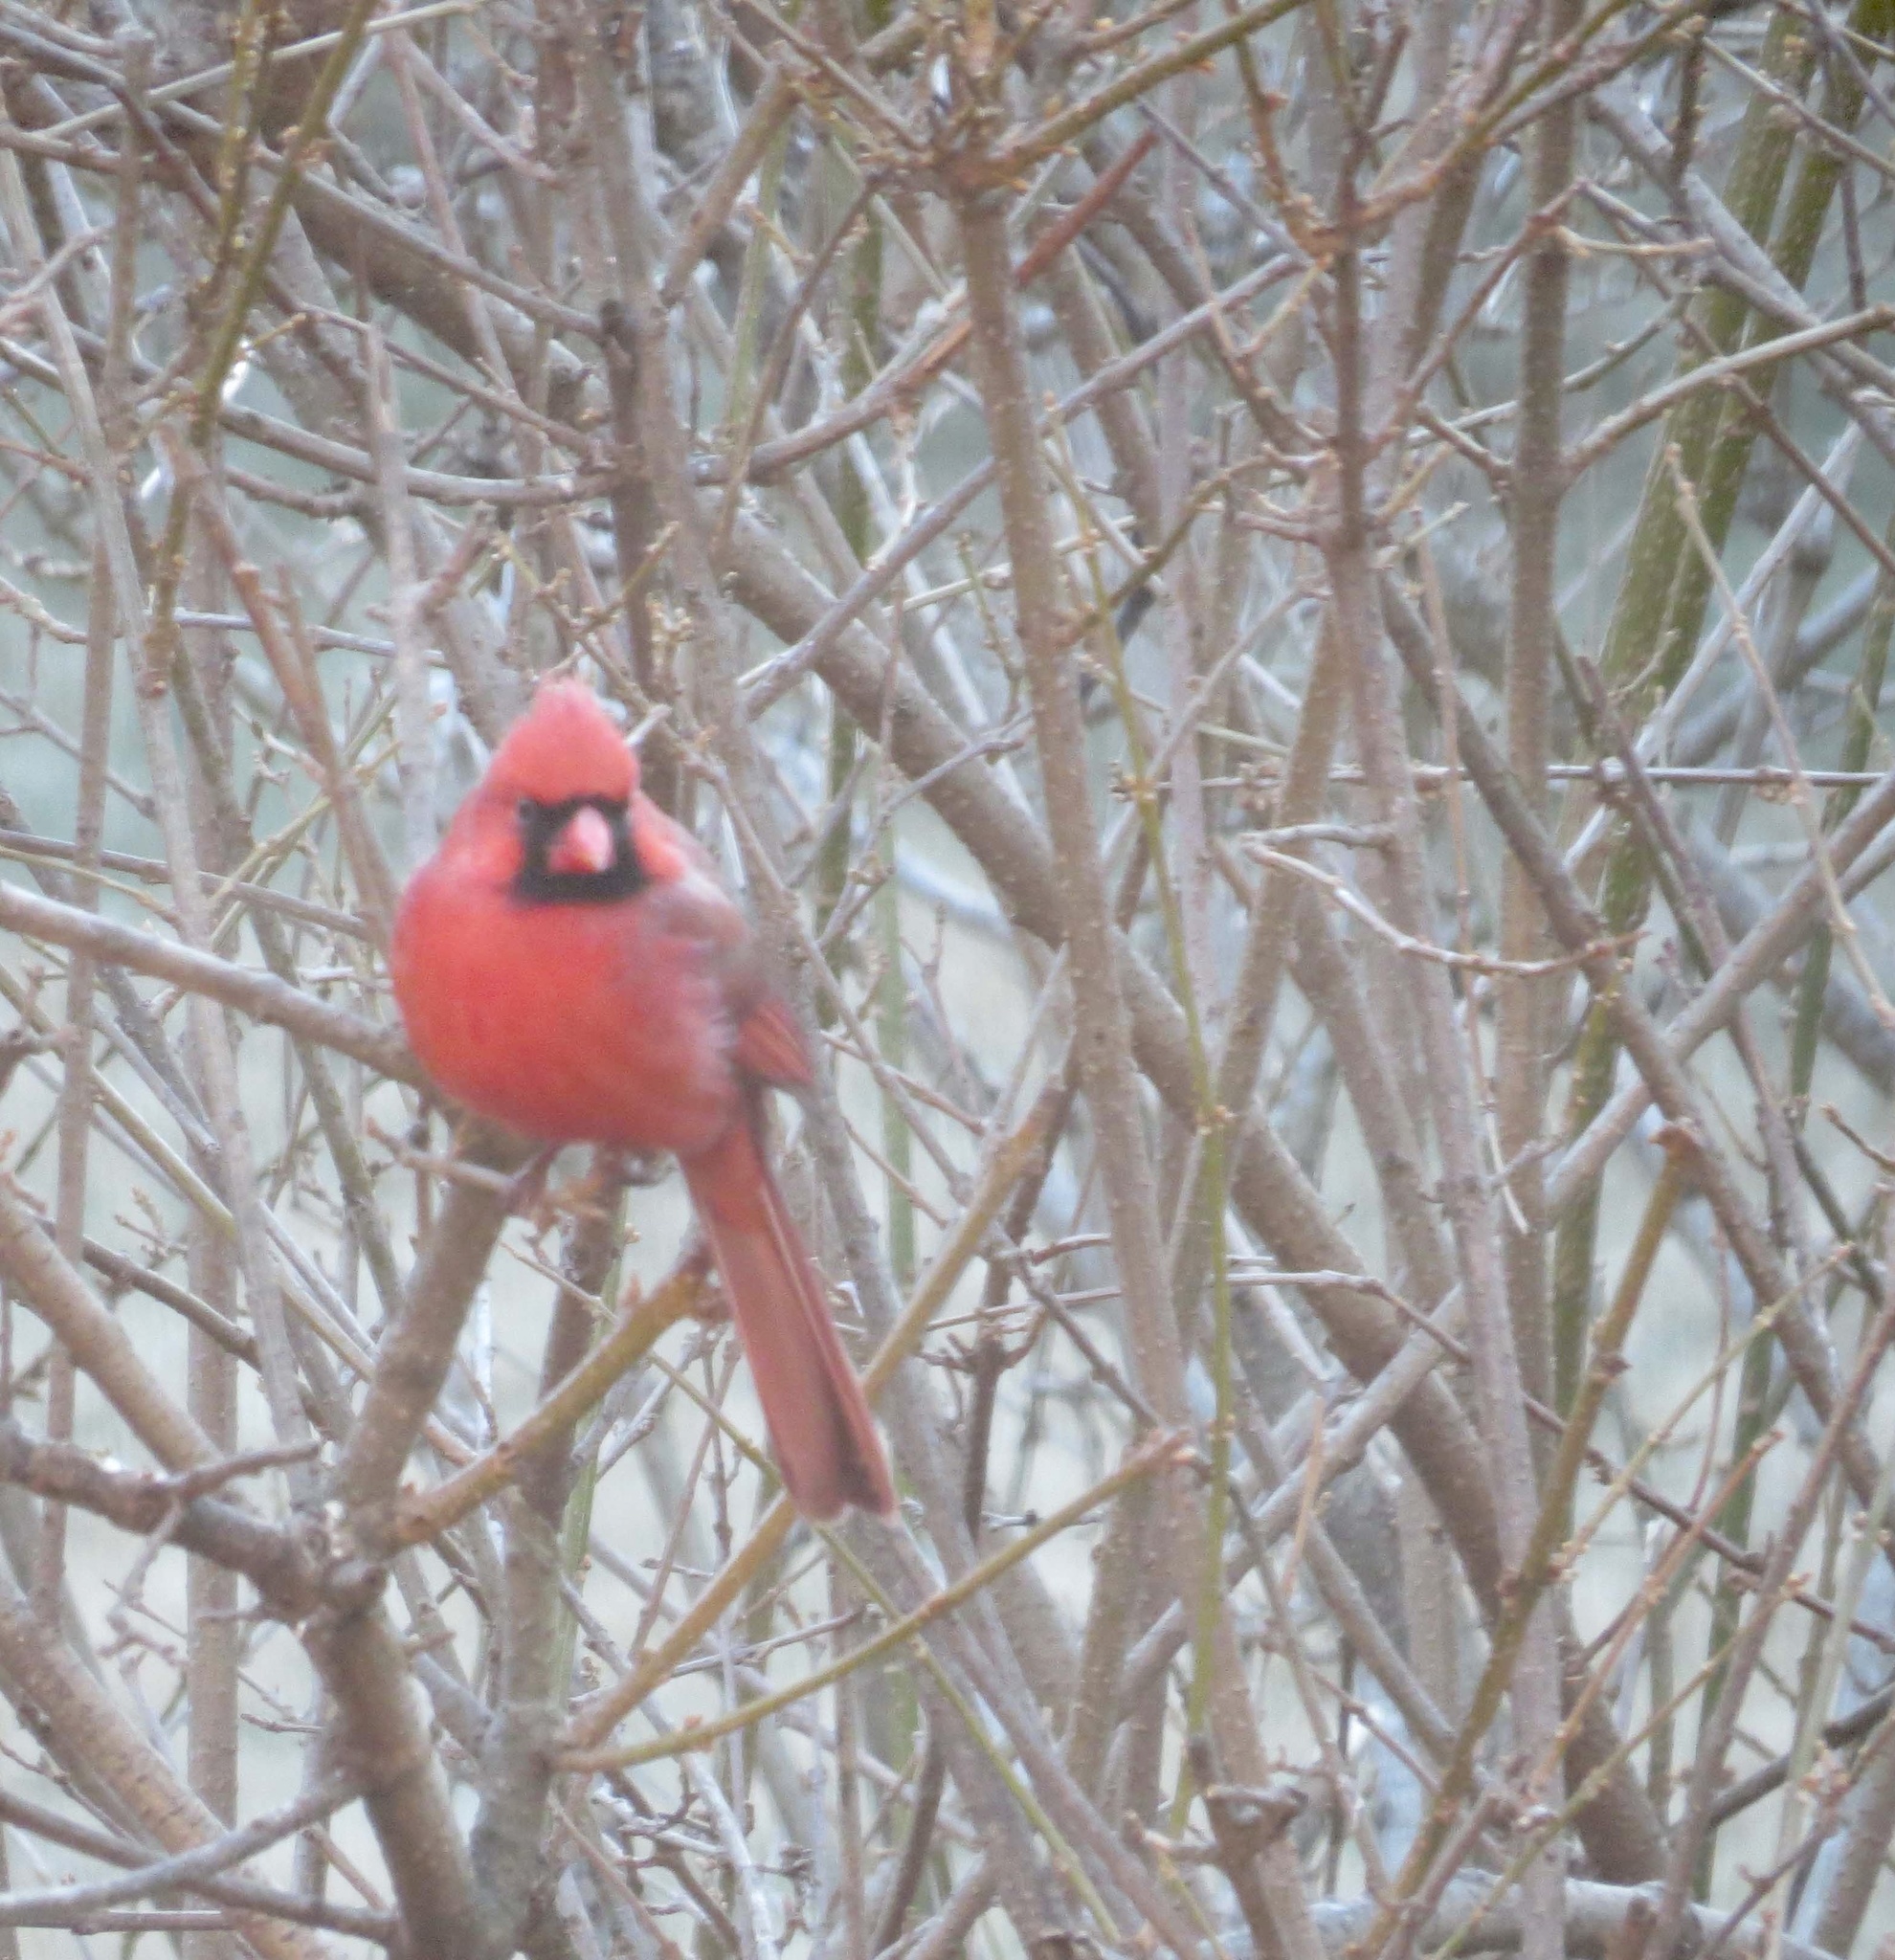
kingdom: Animalia
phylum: Chordata
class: Aves
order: Passeriformes
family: Cardinalidae
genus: Cardinalis
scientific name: Cardinalis cardinalis
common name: Northern cardinal
